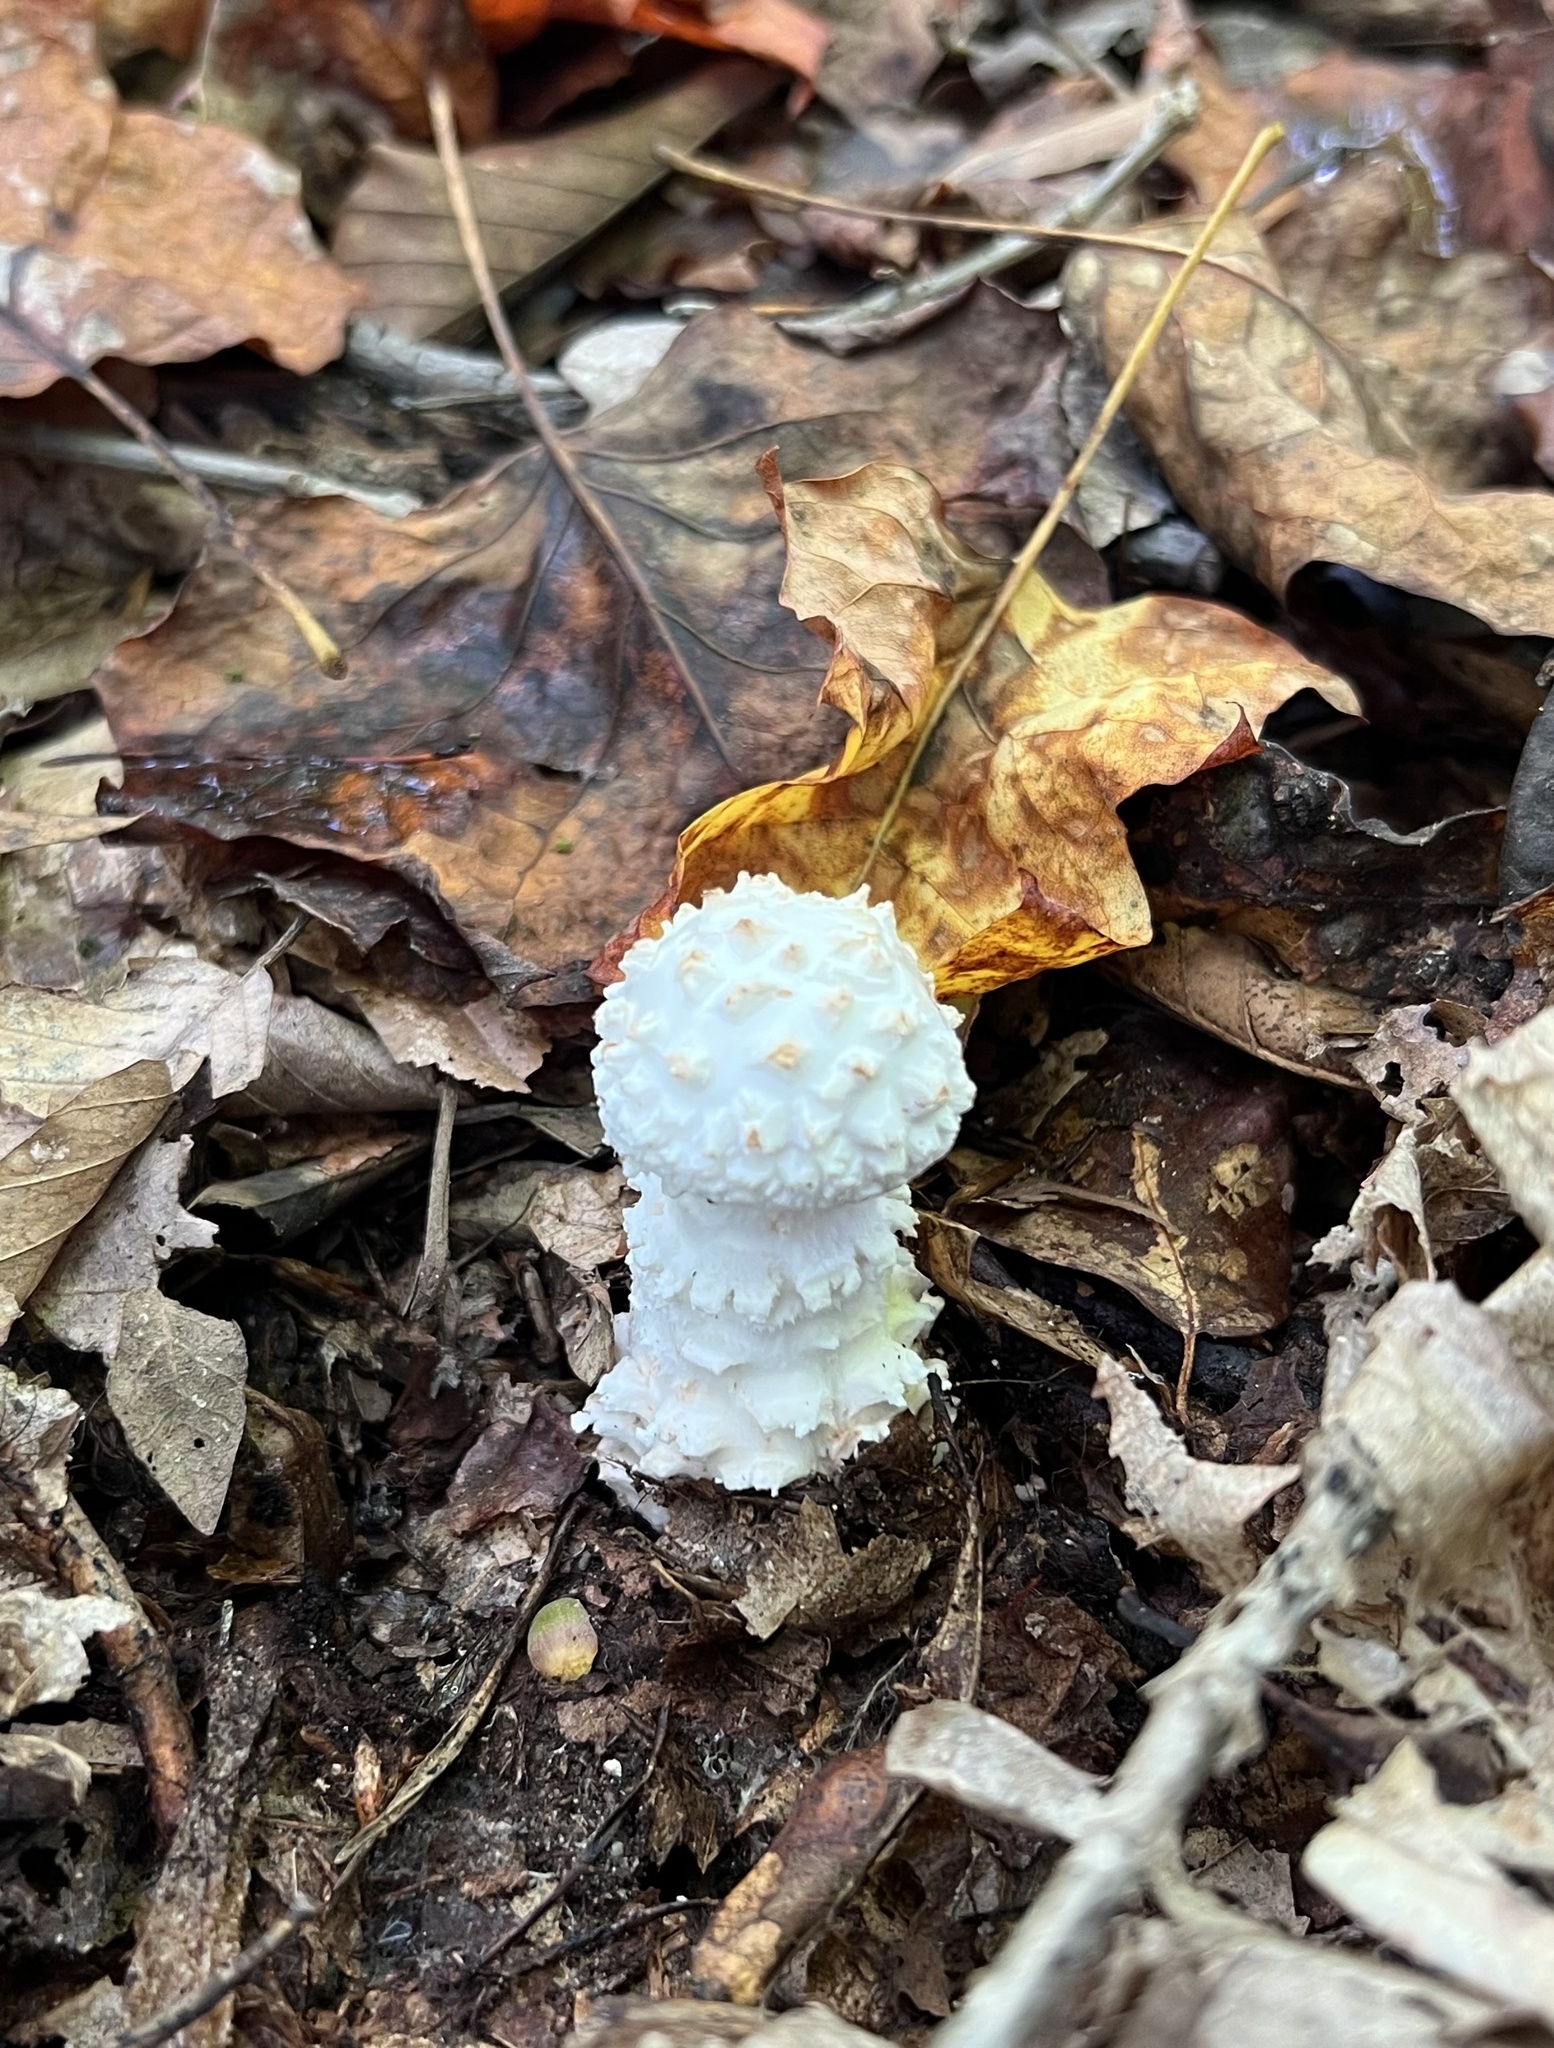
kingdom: Fungi
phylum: Basidiomycota
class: Agaricomycetes
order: Agaricales
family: Amanitaceae
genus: Amanita
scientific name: Amanita cokeri
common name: Coker's amanita
